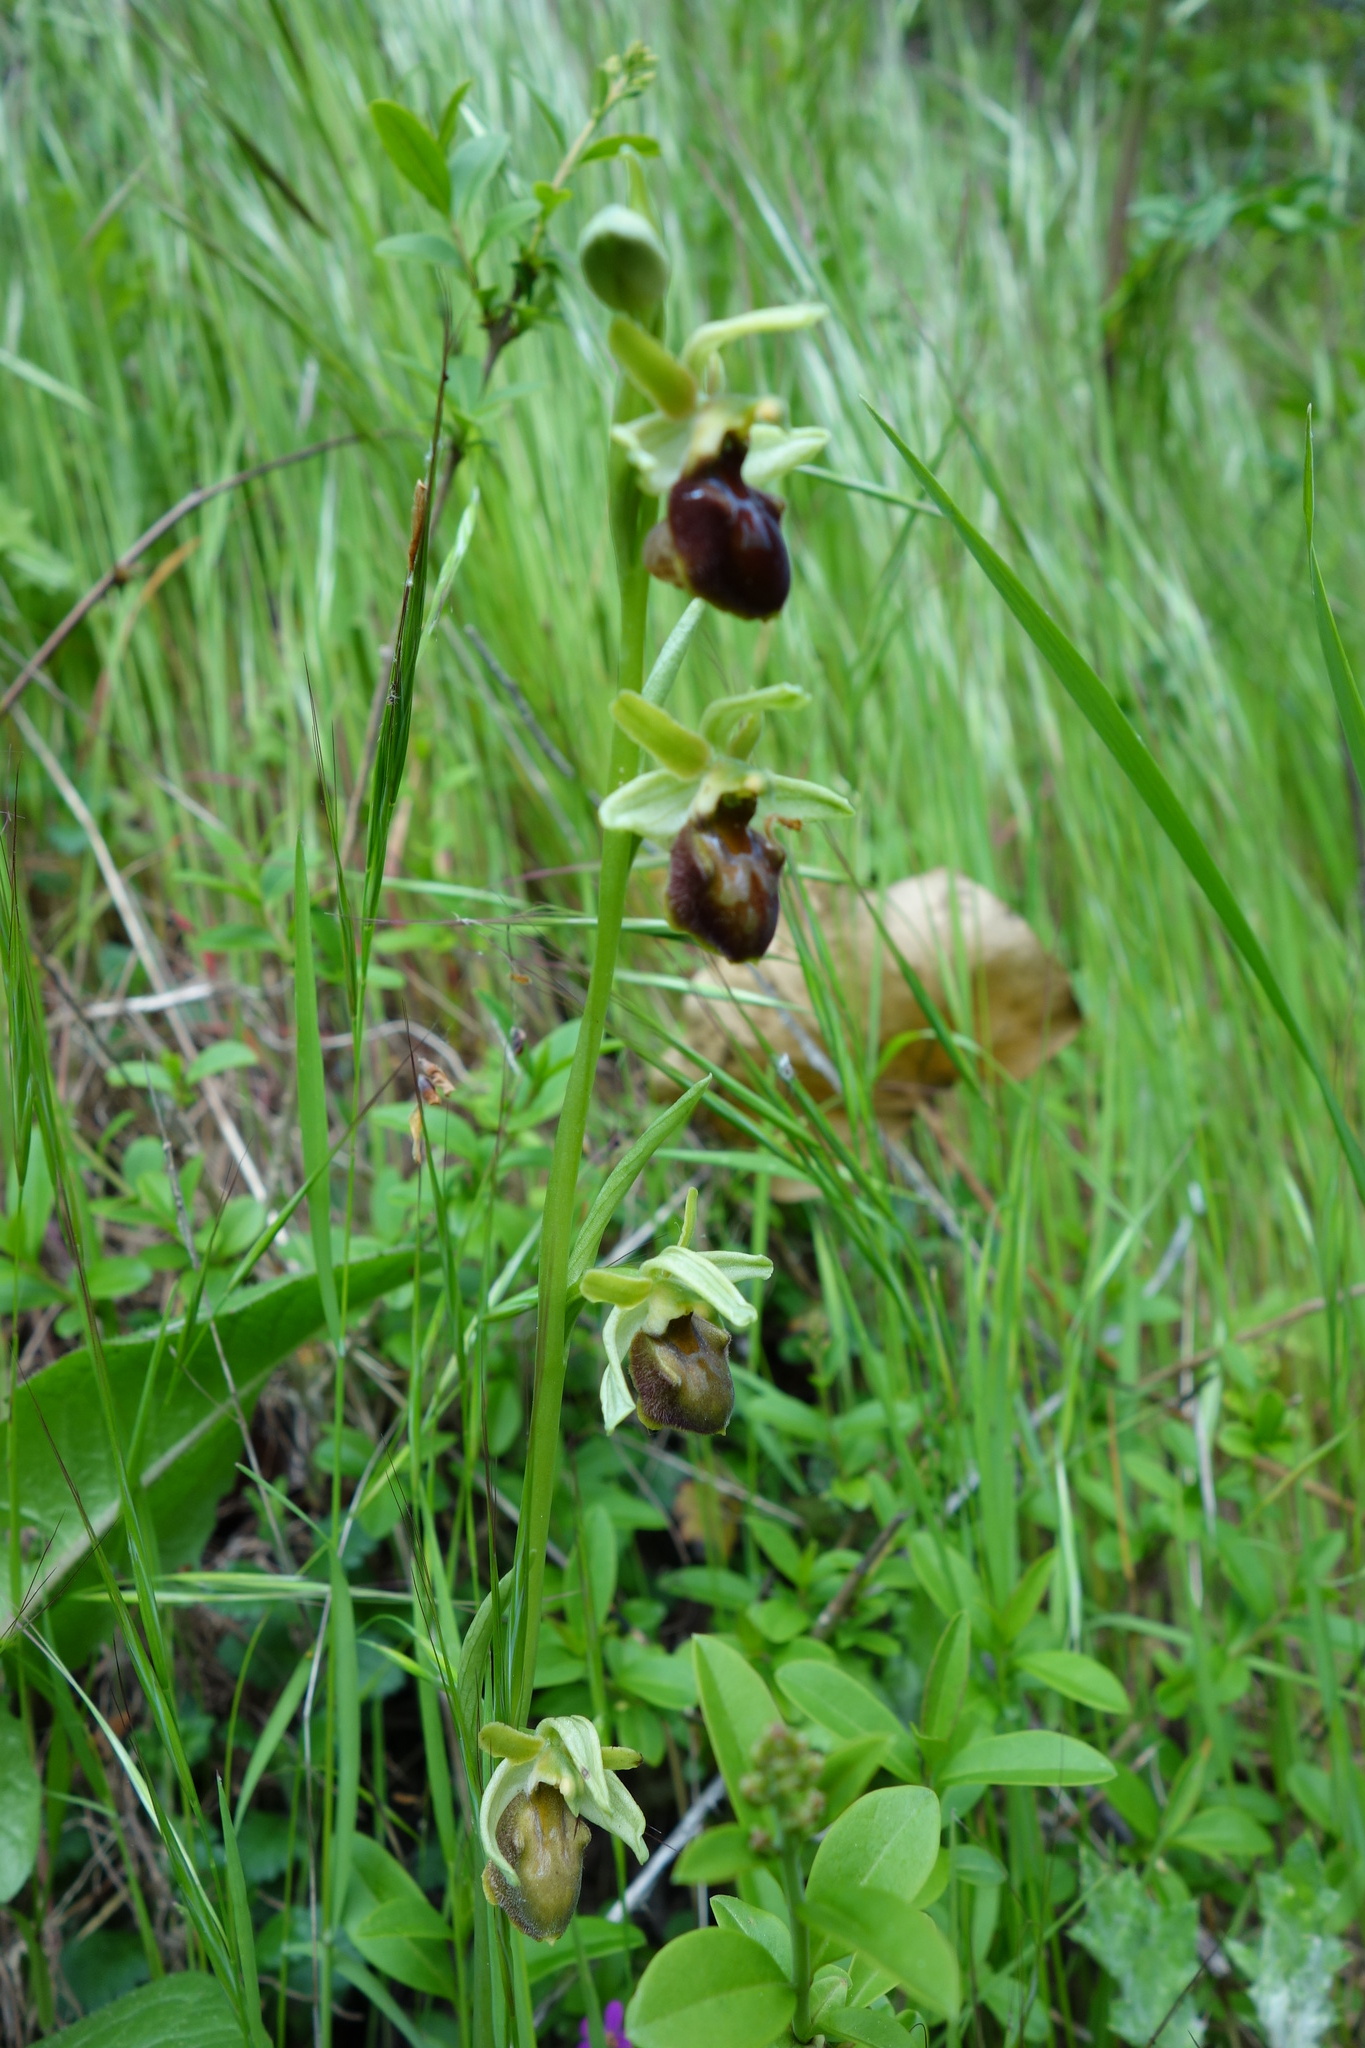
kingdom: Plantae
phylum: Tracheophyta
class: Liliopsida
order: Asparagales
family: Orchidaceae
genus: Ophrys
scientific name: Ophrys sphegodes
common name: Early spider-orchid
